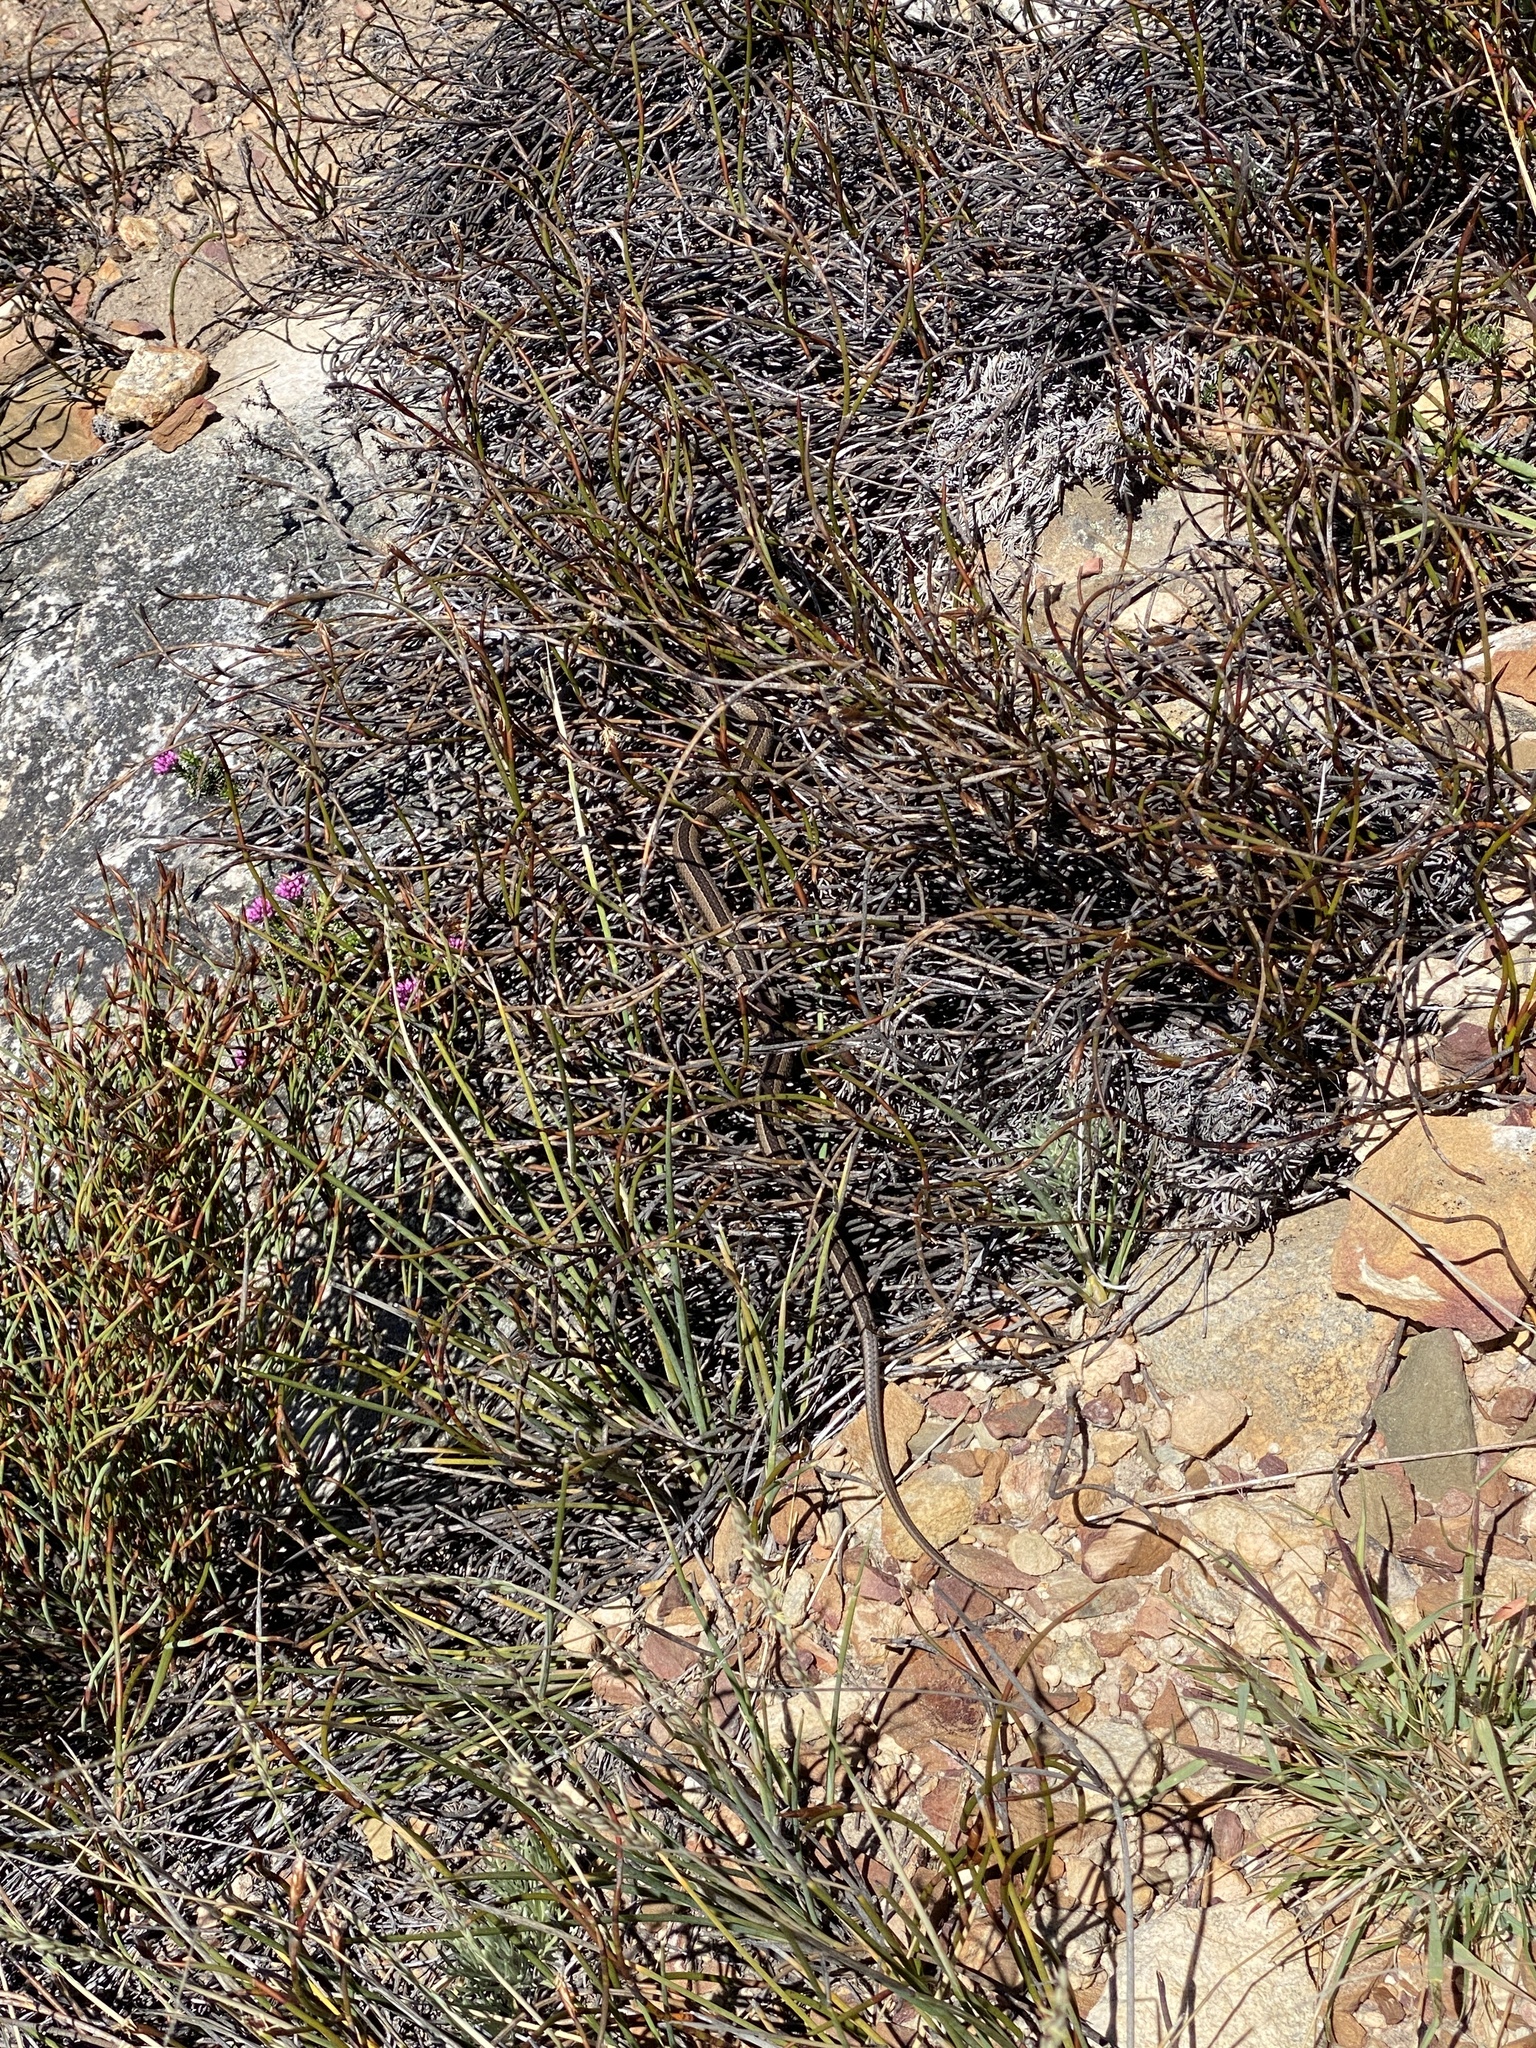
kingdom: Animalia
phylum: Chordata
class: Squamata
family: Psammophiidae
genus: Psammophis
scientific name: Psammophis crucifer
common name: Cross-marked grass snake
